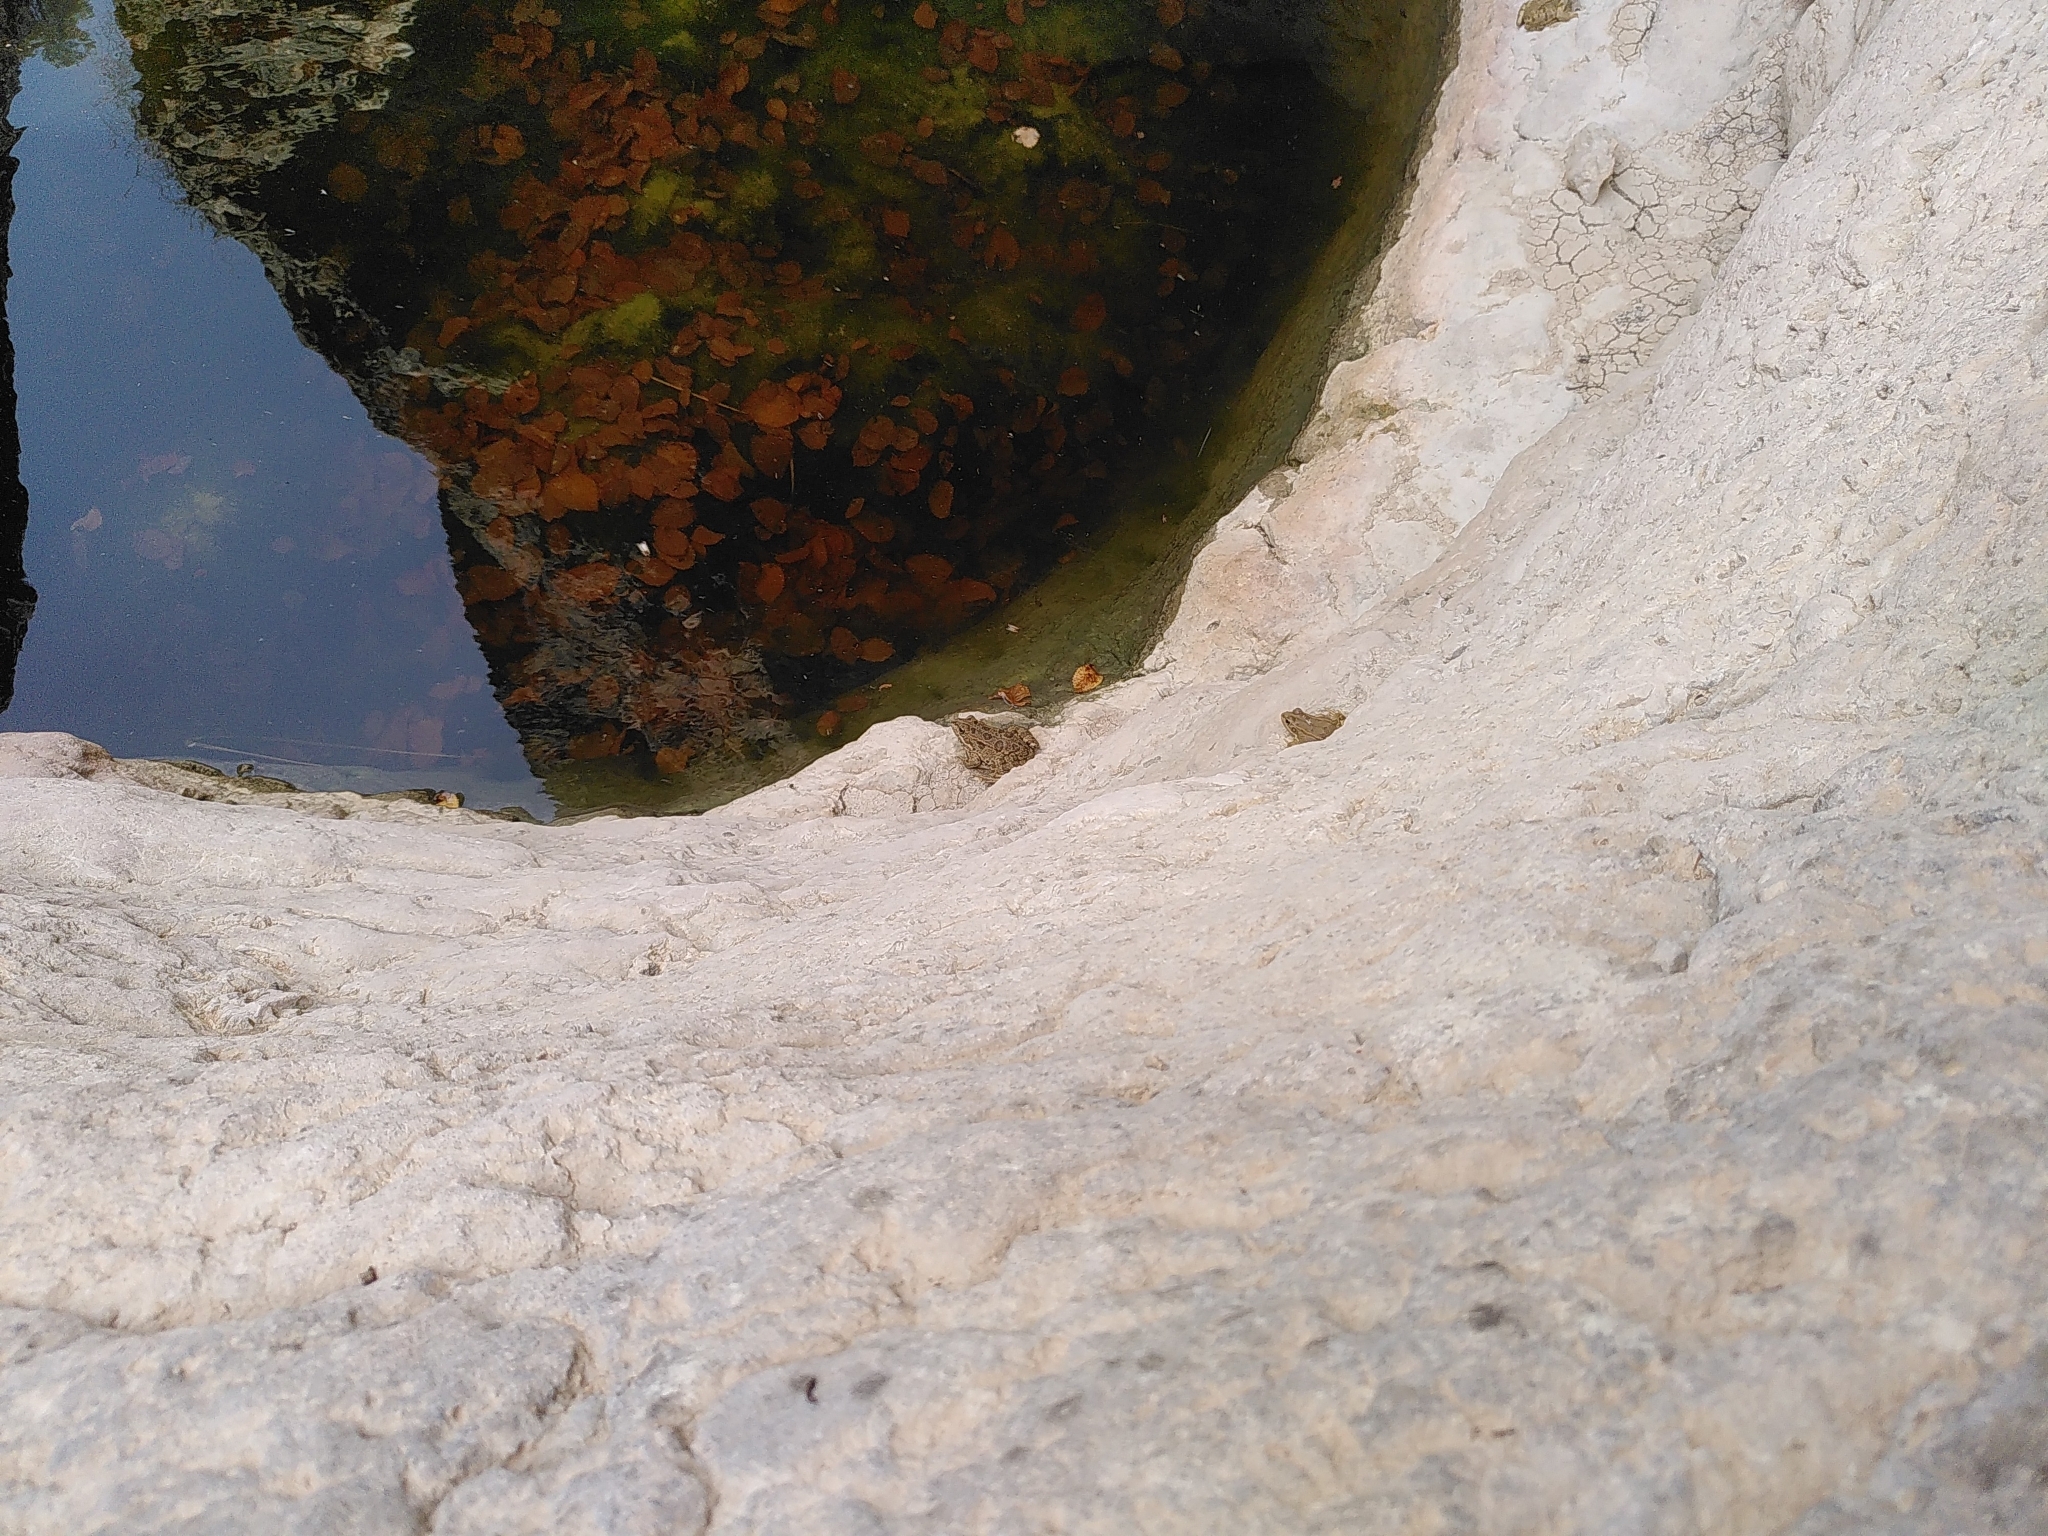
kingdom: Animalia
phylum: Chordata
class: Amphibia
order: Anura
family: Ranidae
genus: Pelophylax
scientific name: Pelophylax perezi
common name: Perez's frog
